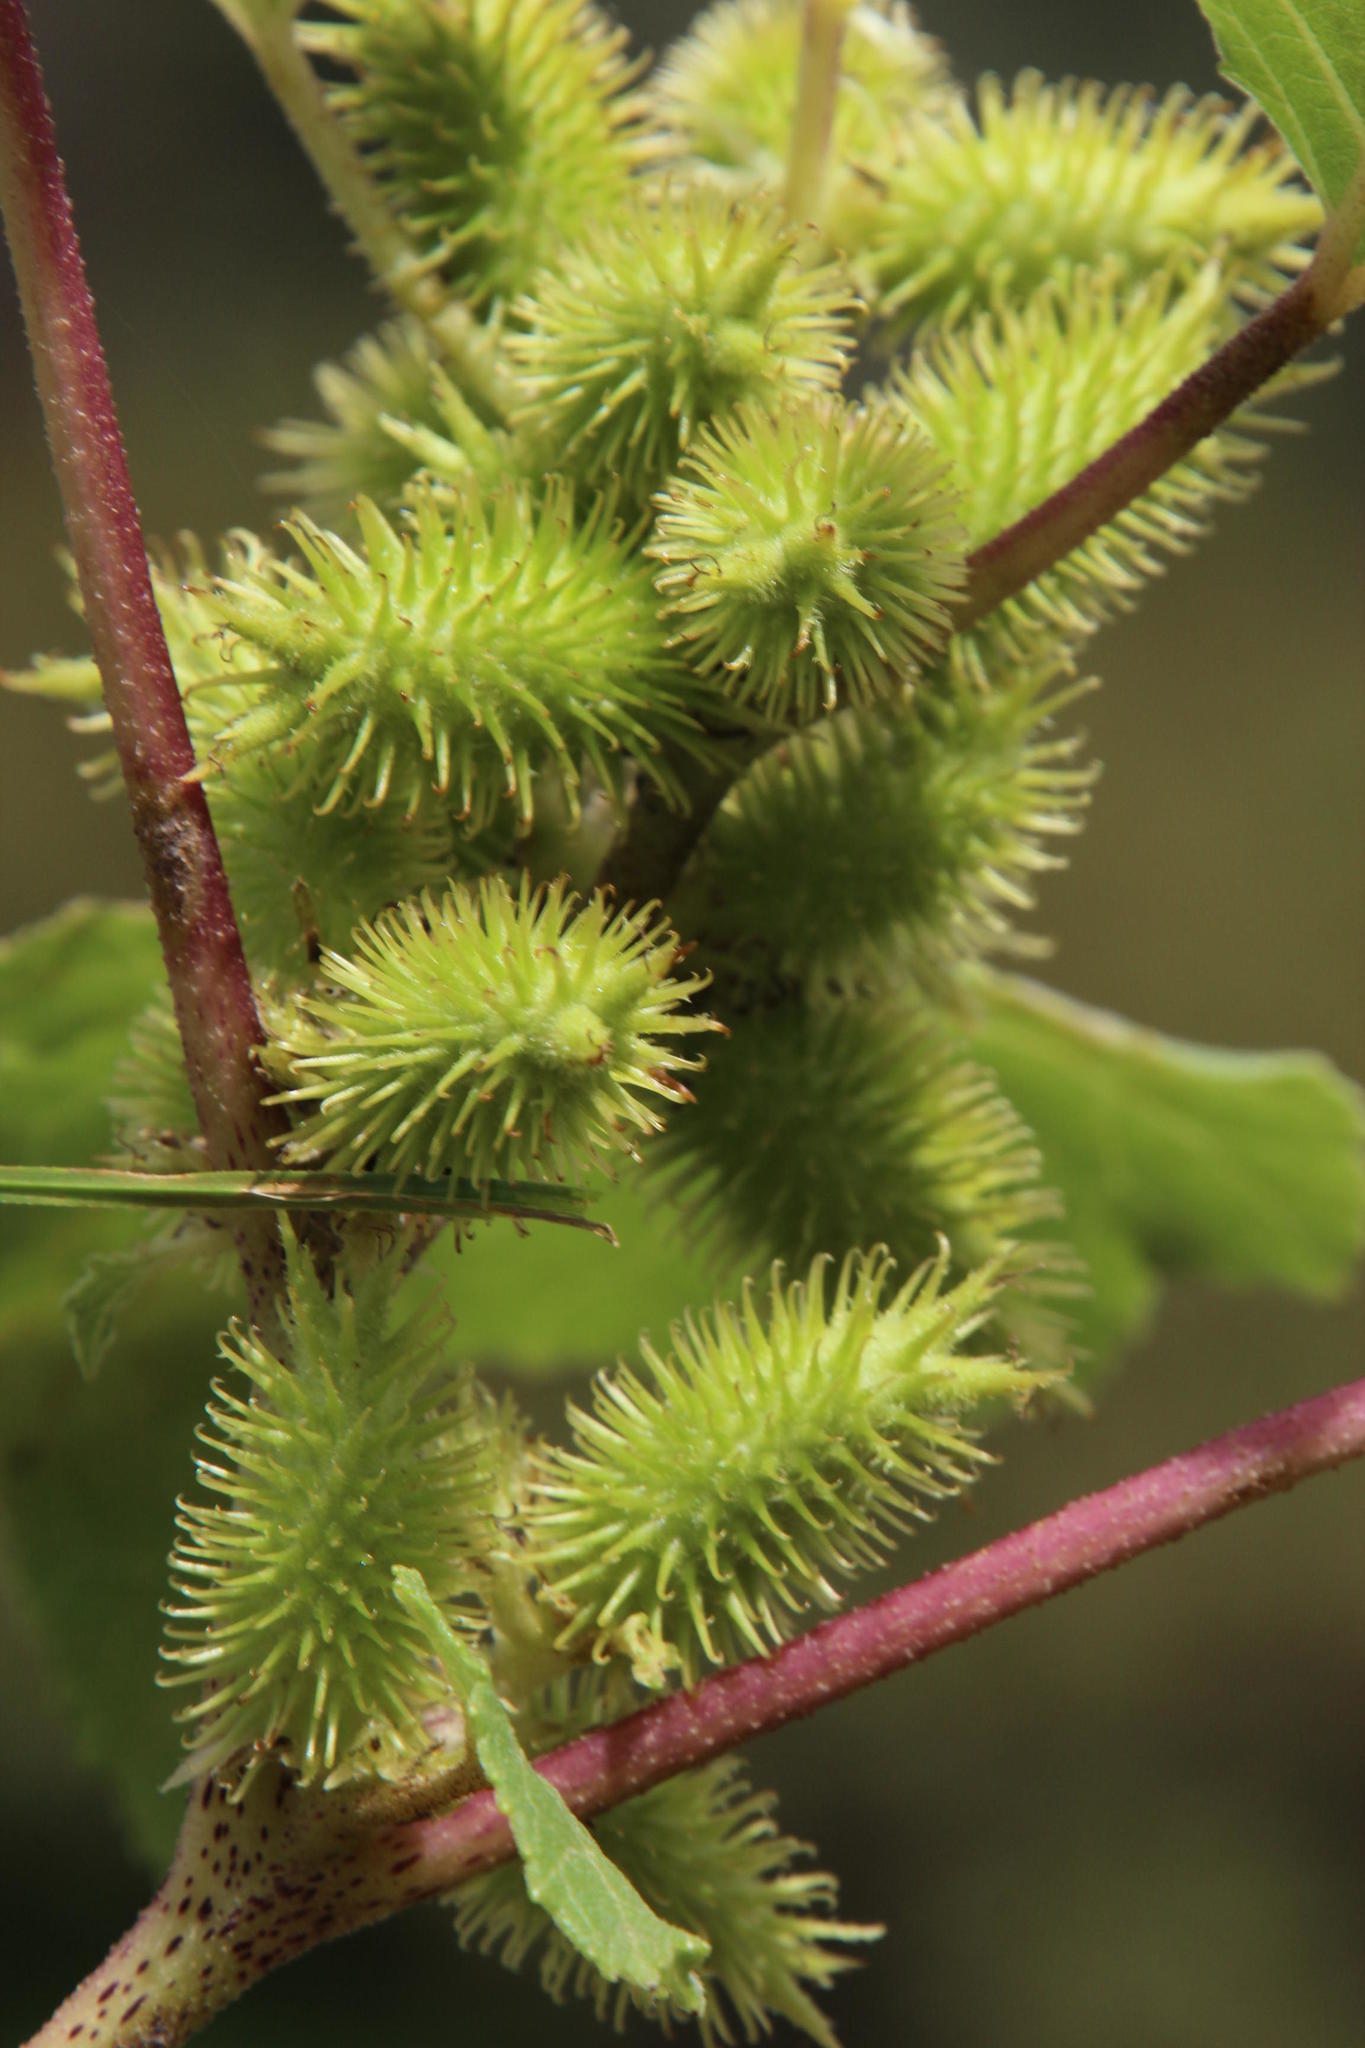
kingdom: Plantae
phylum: Tracheophyta
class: Magnoliopsida
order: Asterales
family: Asteraceae
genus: Xanthium
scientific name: Xanthium strumarium
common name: Rough cocklebur
